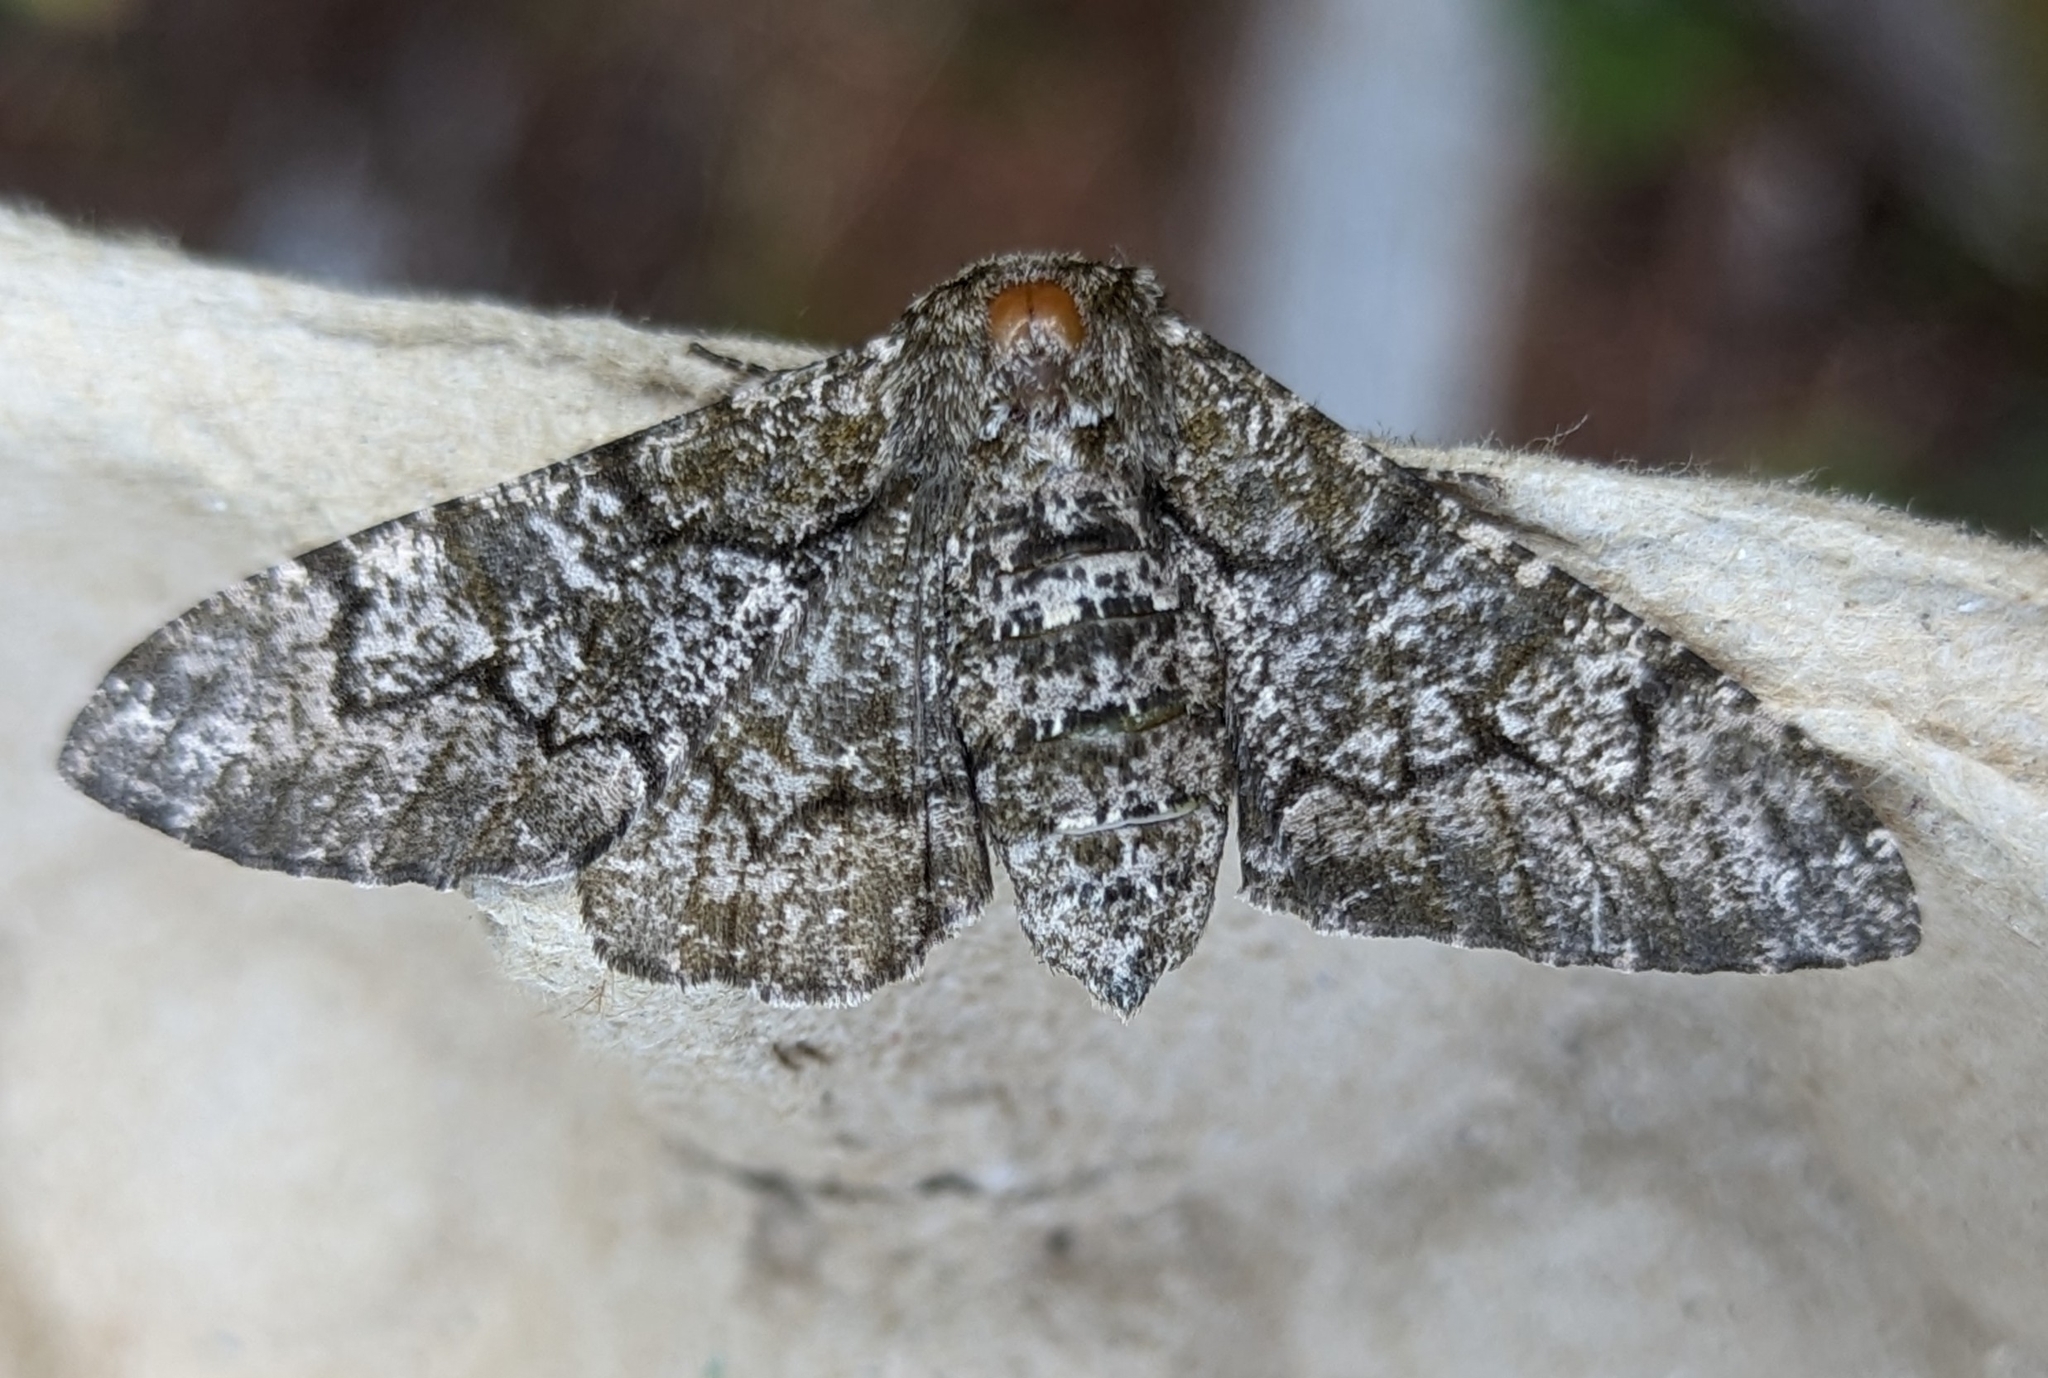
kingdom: Animalia
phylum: Arthropoda
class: Insecta
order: Lepidoptera
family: Geometridae
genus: Biston
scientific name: Biston betularia
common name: Peppered moth
